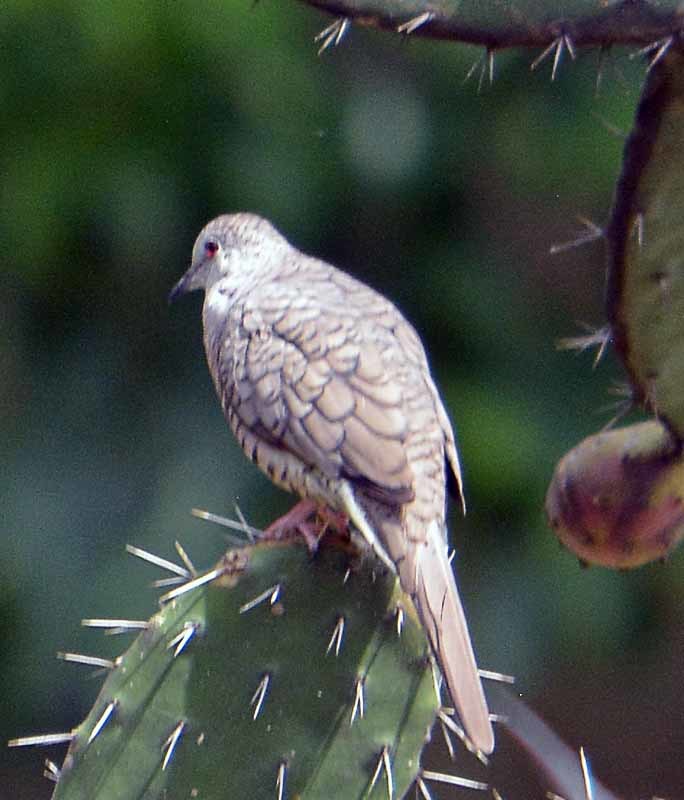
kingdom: Animalia
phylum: Chordata
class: Aves
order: Columbiformes
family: Columbidae
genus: Columbina
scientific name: Columbina inca
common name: Inca dove
